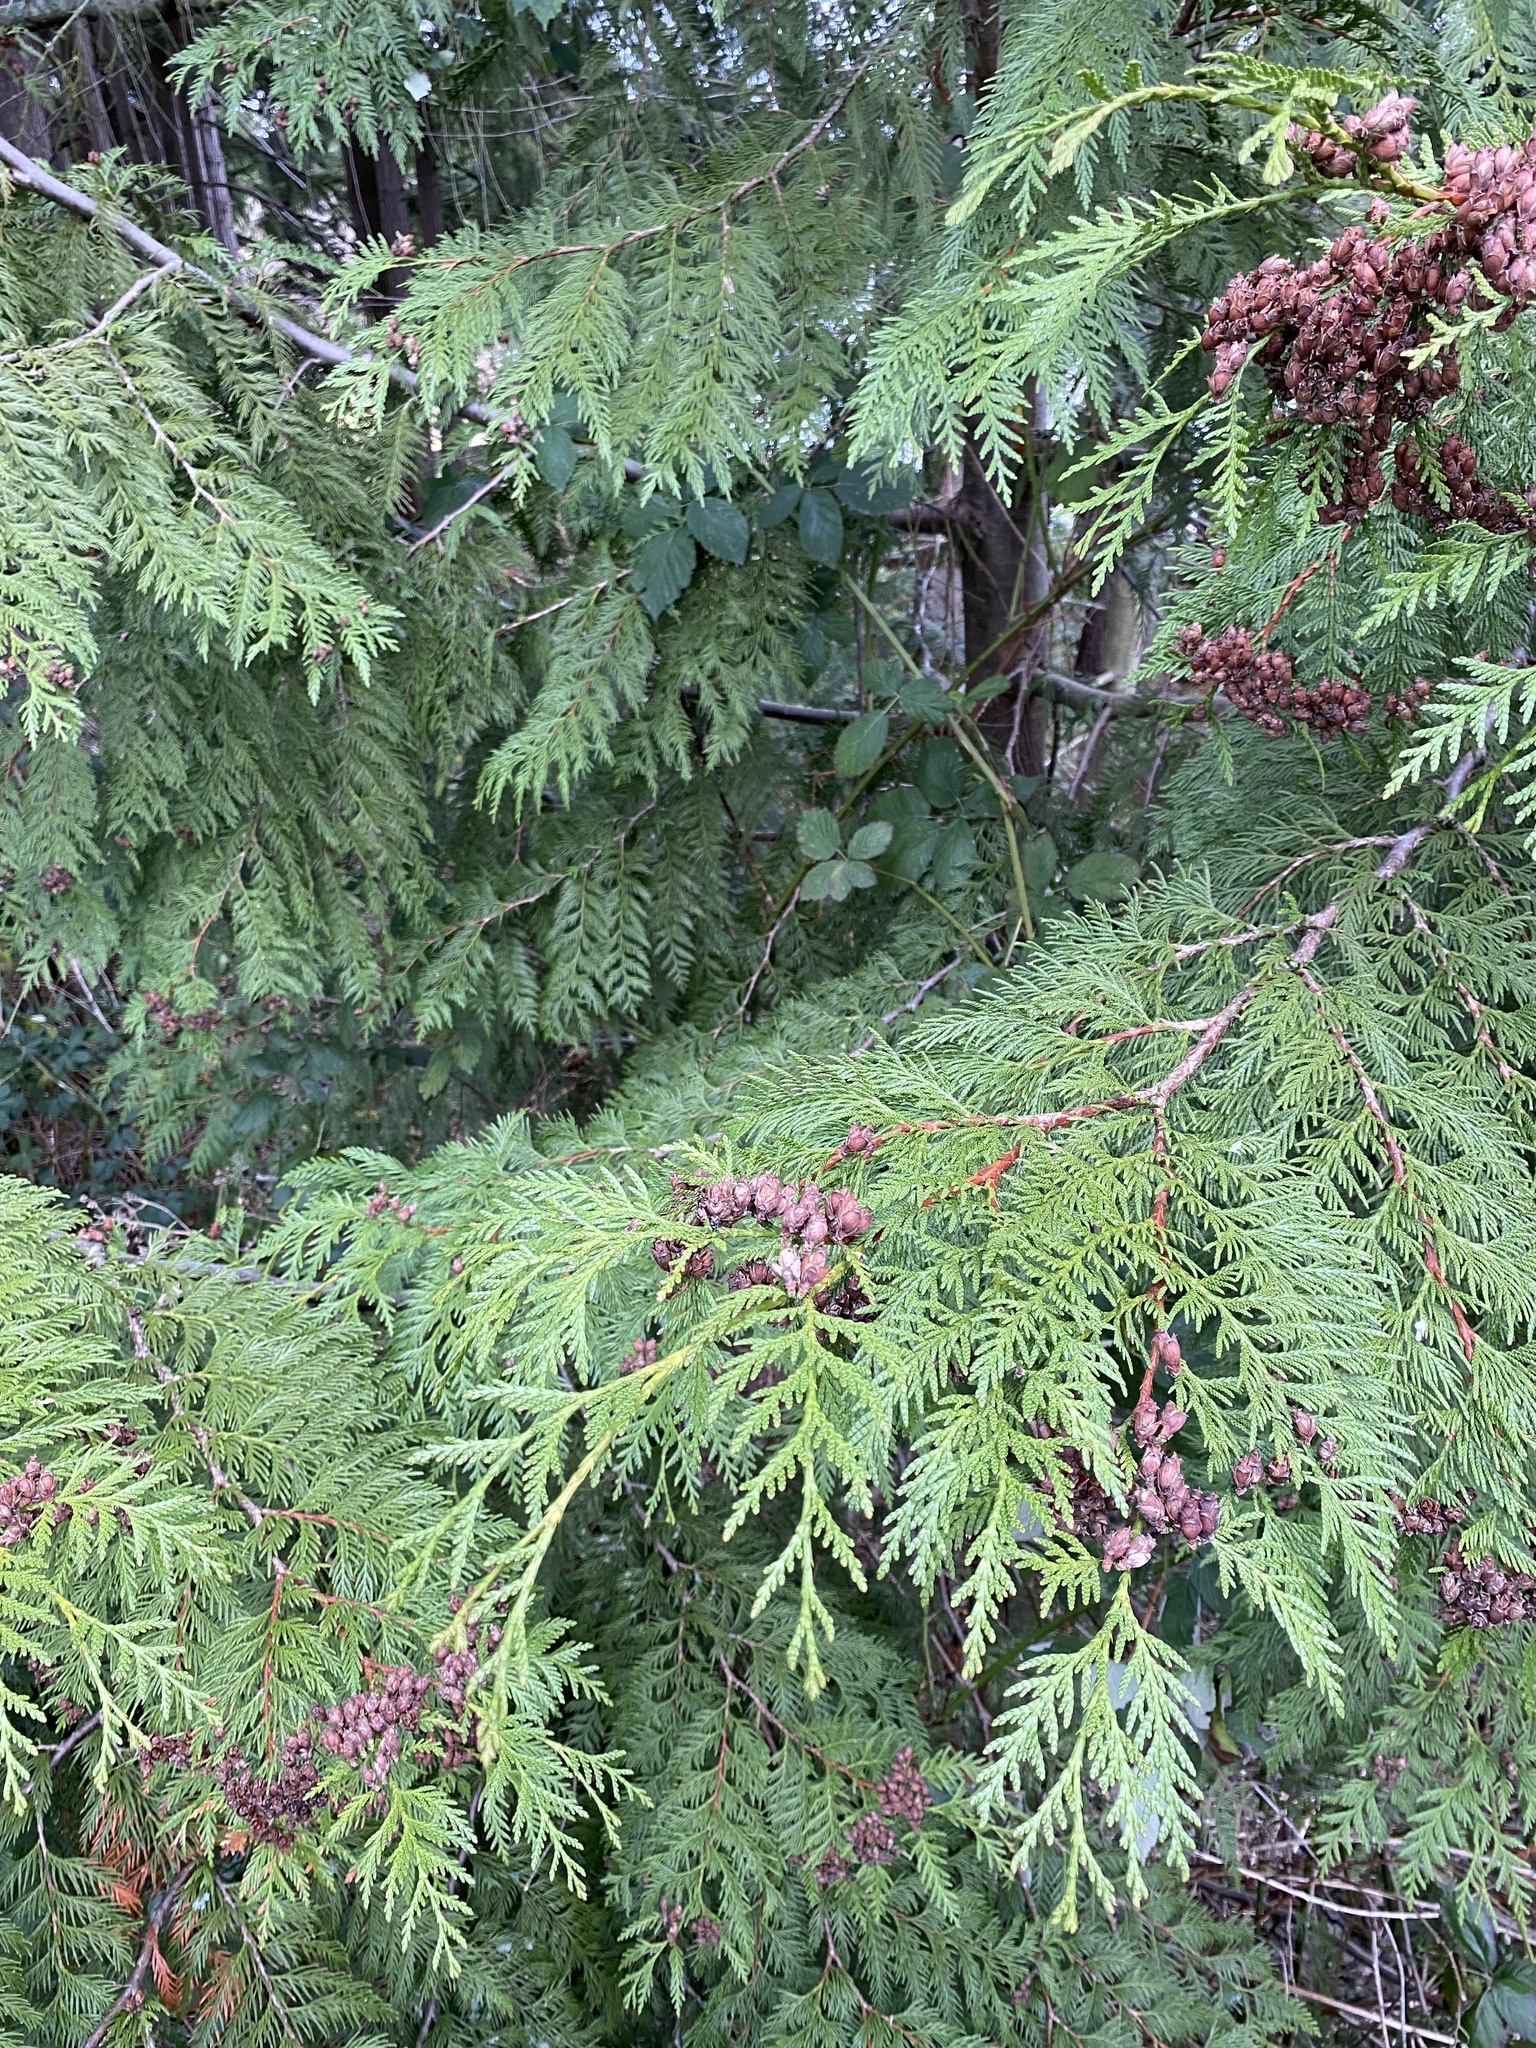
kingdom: Plantae
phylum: Tracheophyta
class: Pinopsida
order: Pinales
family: Cupressaceae
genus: Thuja
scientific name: Thuja plicata
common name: Western red-cedar
